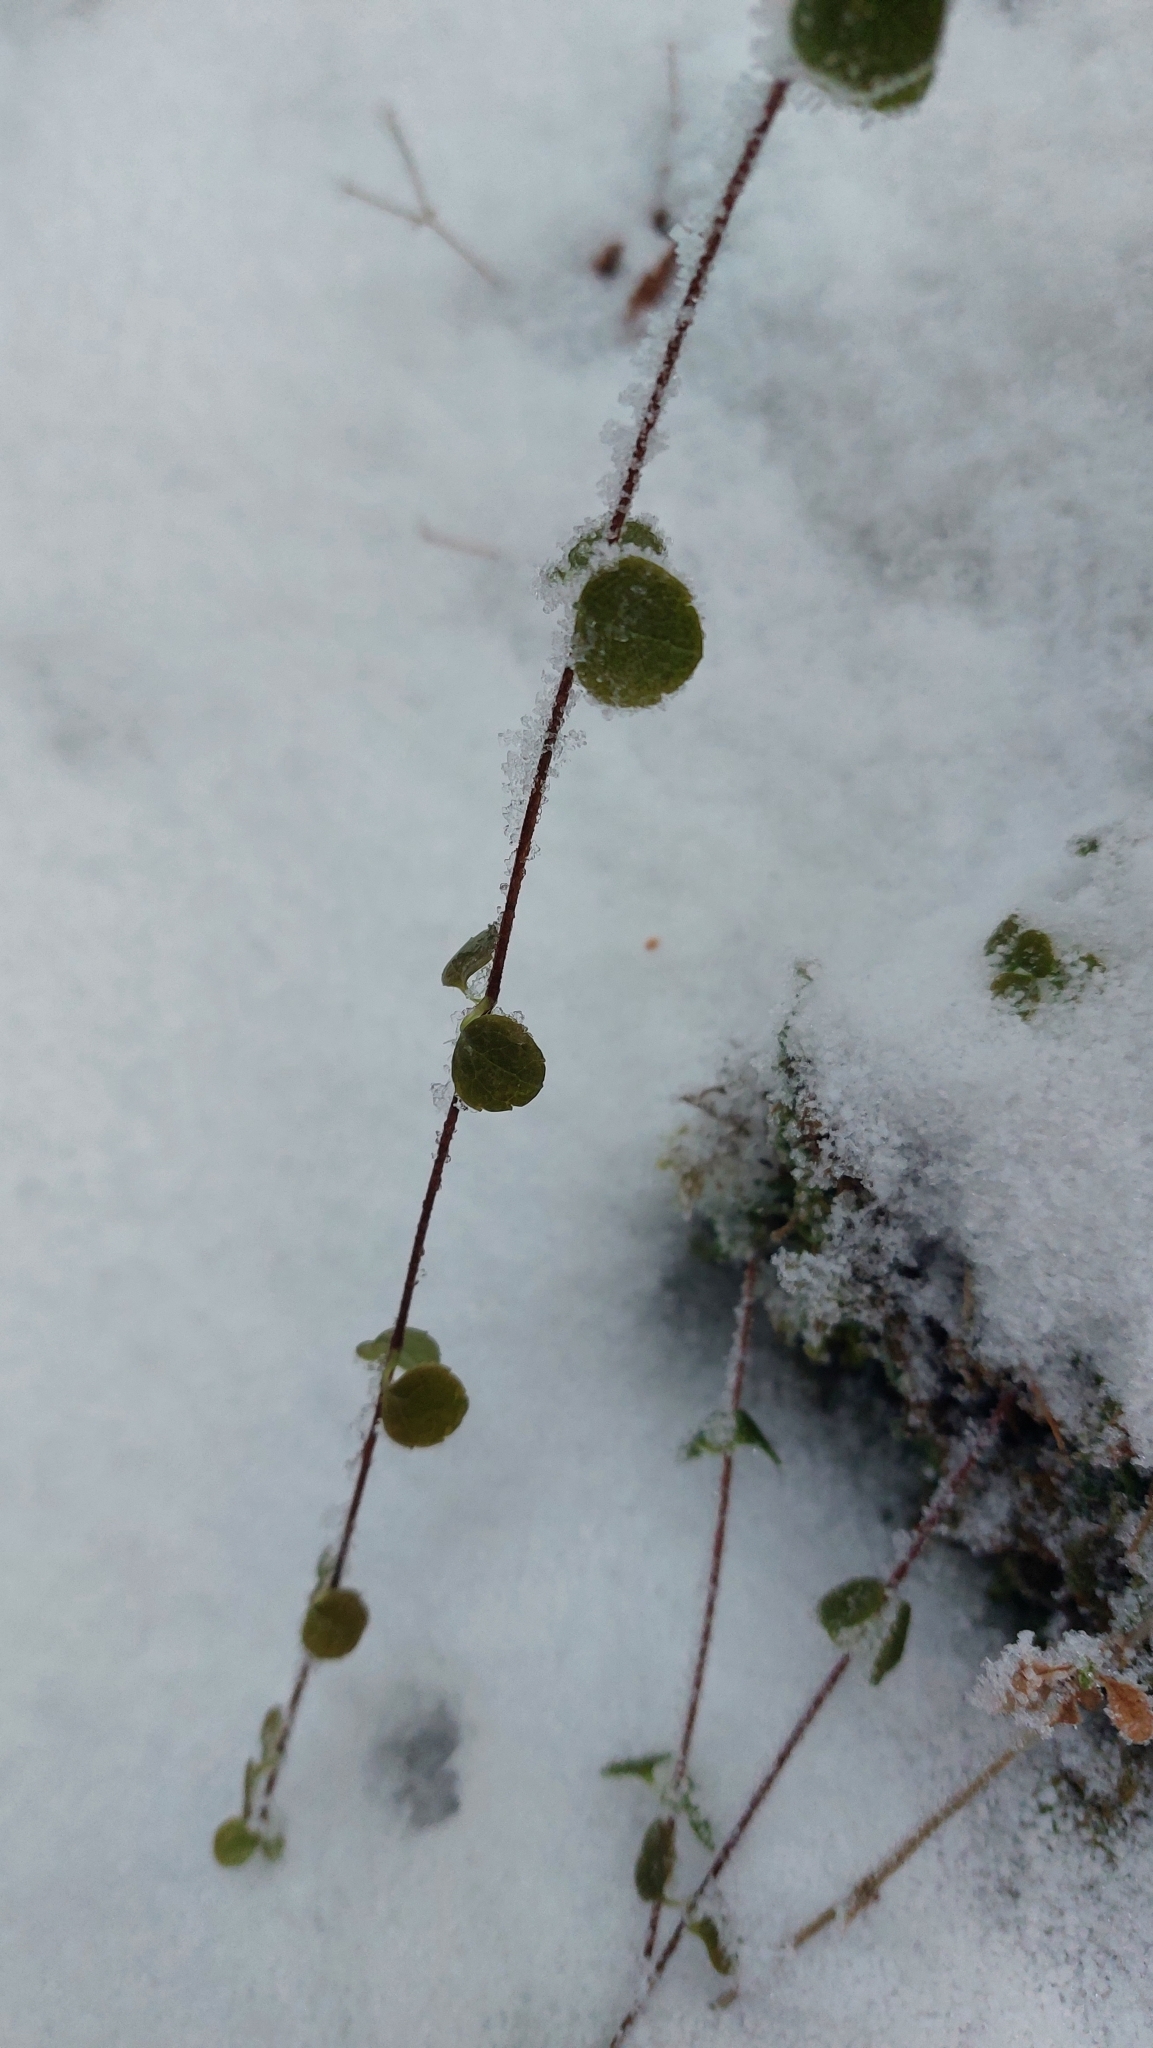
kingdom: Plantae
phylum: Tracheophyta
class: Magnoliopsida
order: Dipsacales
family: Caprifoliaceae
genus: Linnaea
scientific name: Linnaea borealis
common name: Twinflower
